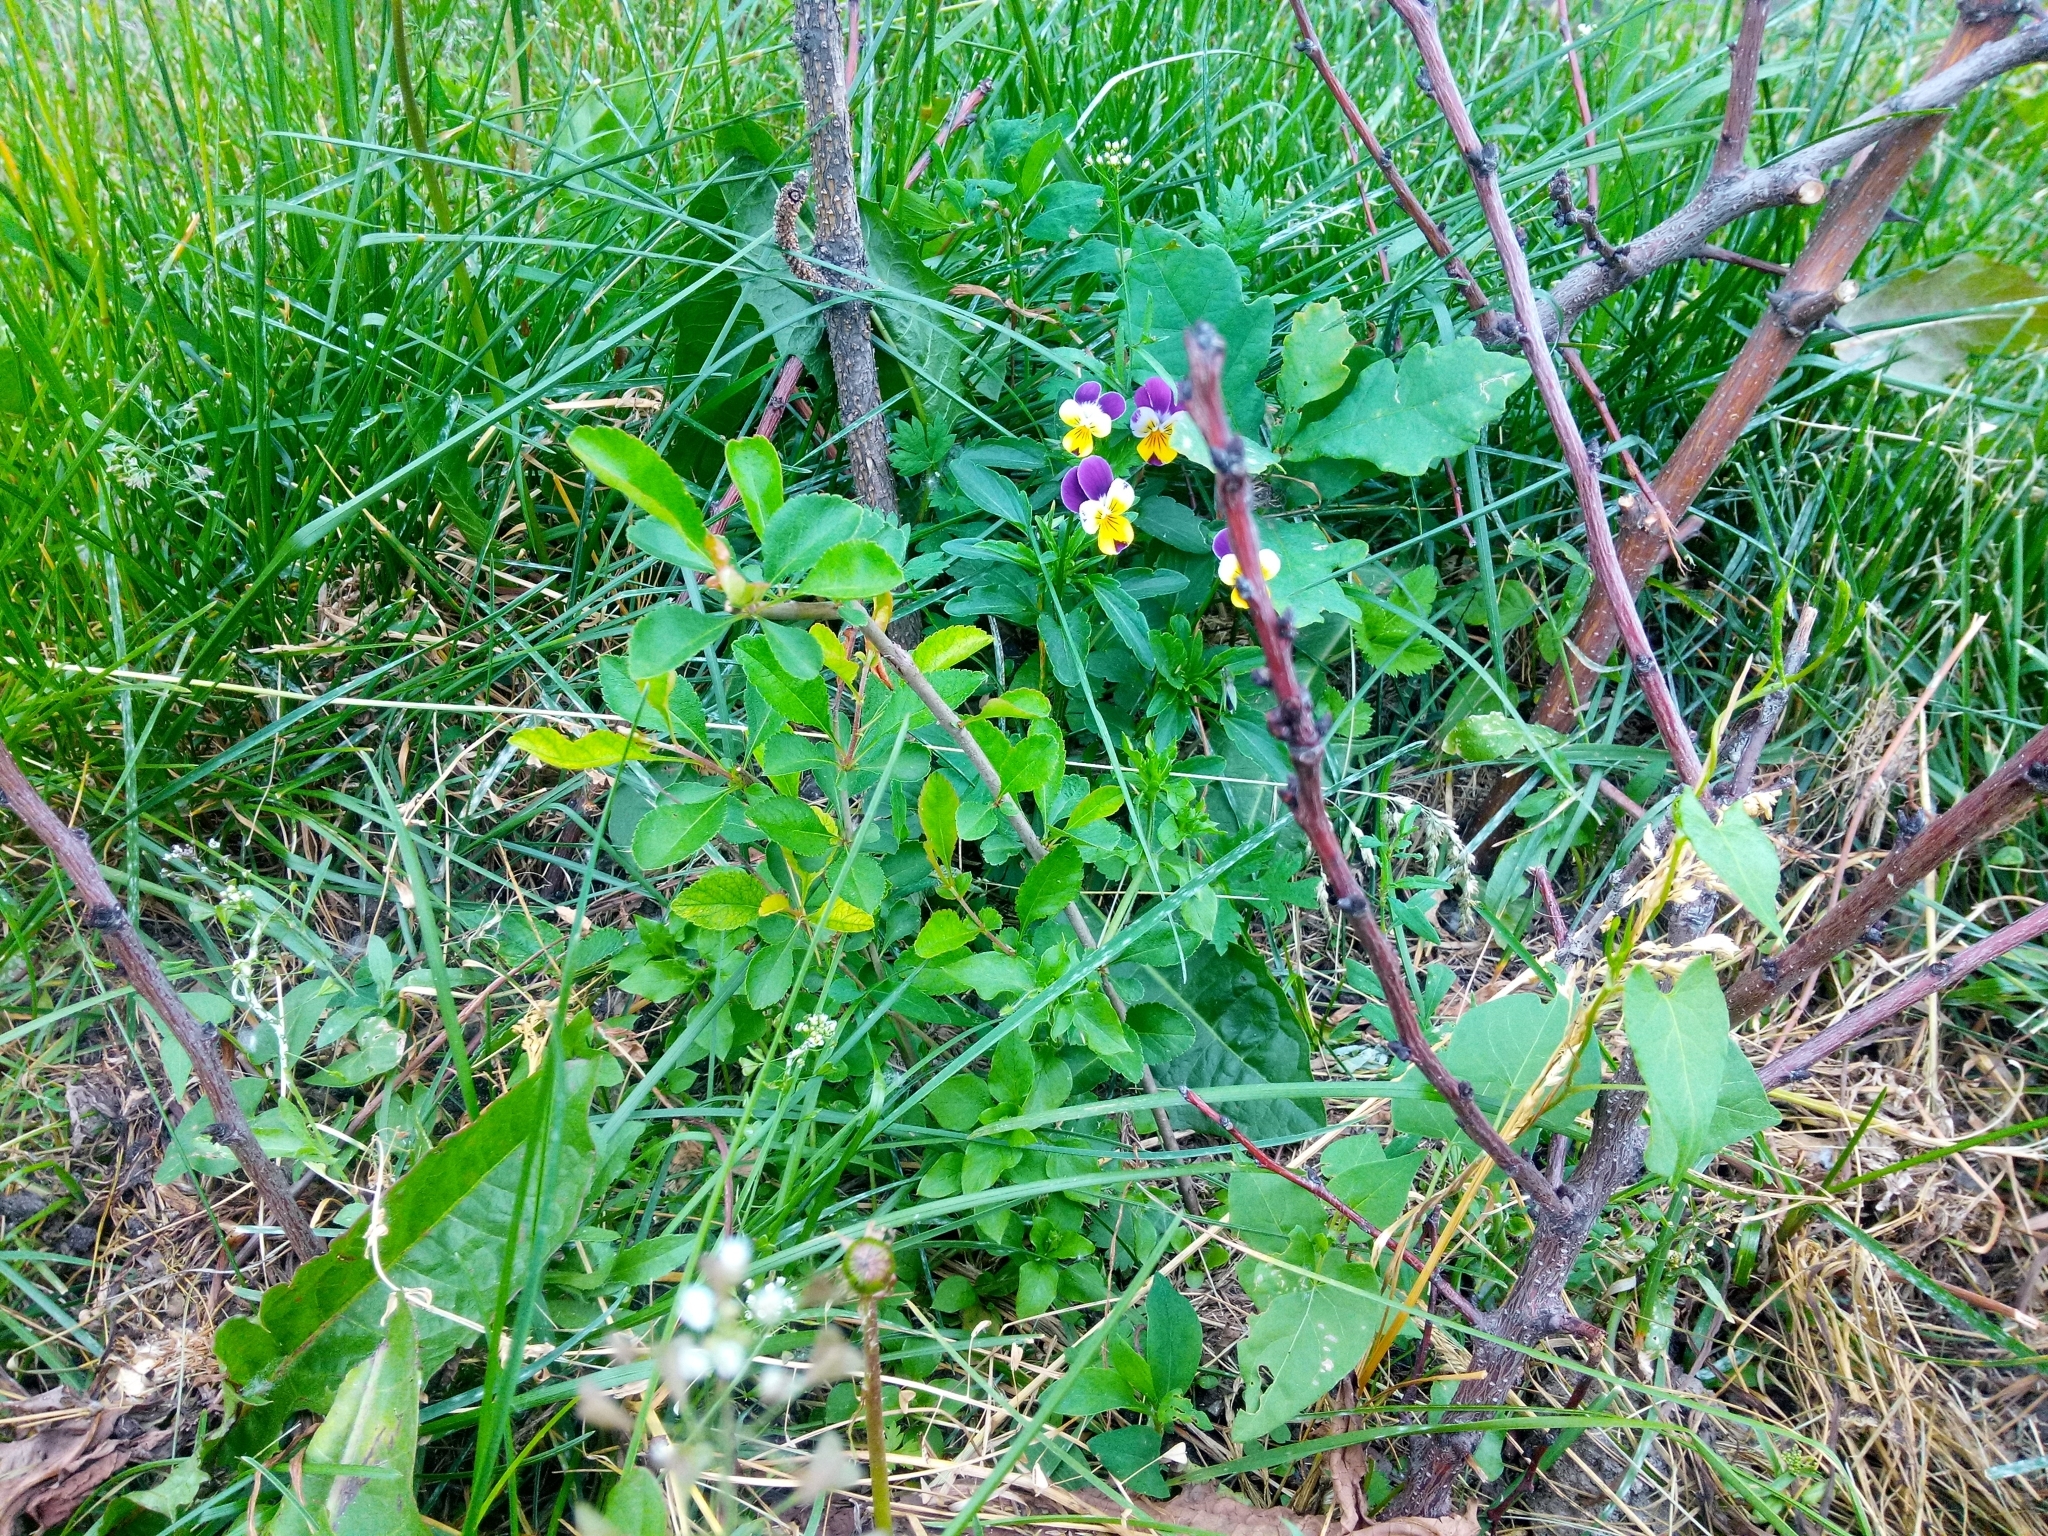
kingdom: Plantae
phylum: Tracheophyta
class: Magnoliopsida
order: Malpighiales
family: Violaceae
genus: Viola
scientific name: Viola wittrockiana
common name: Garden pansy
